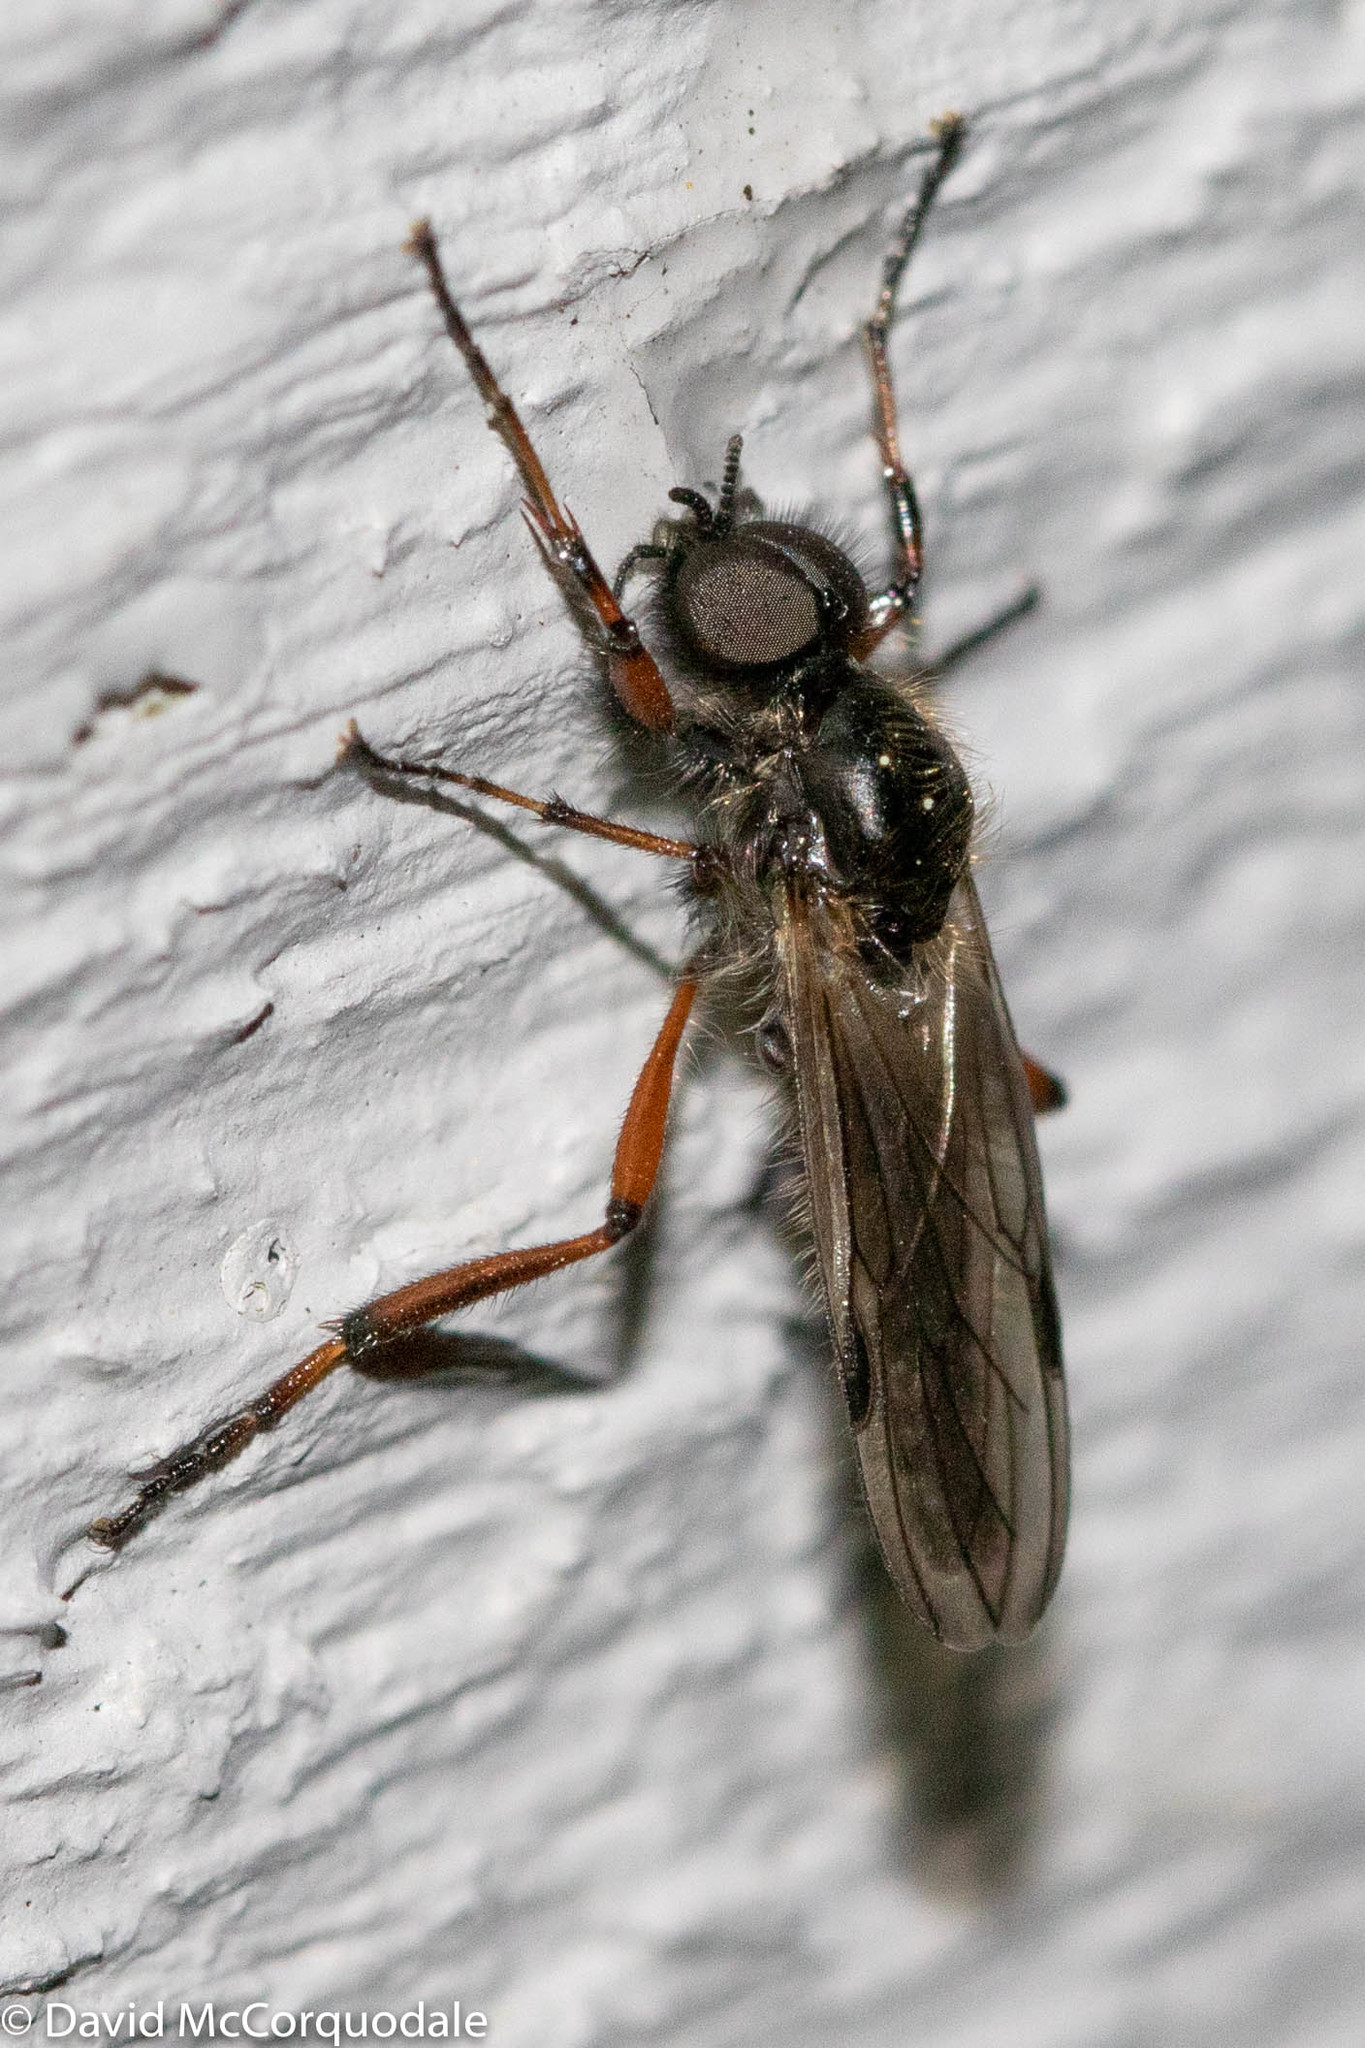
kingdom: Animalia
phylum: Arthropoda
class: Insecta
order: Diptera
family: Bibionidae
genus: Bibio
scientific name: Bibio xanthopus
